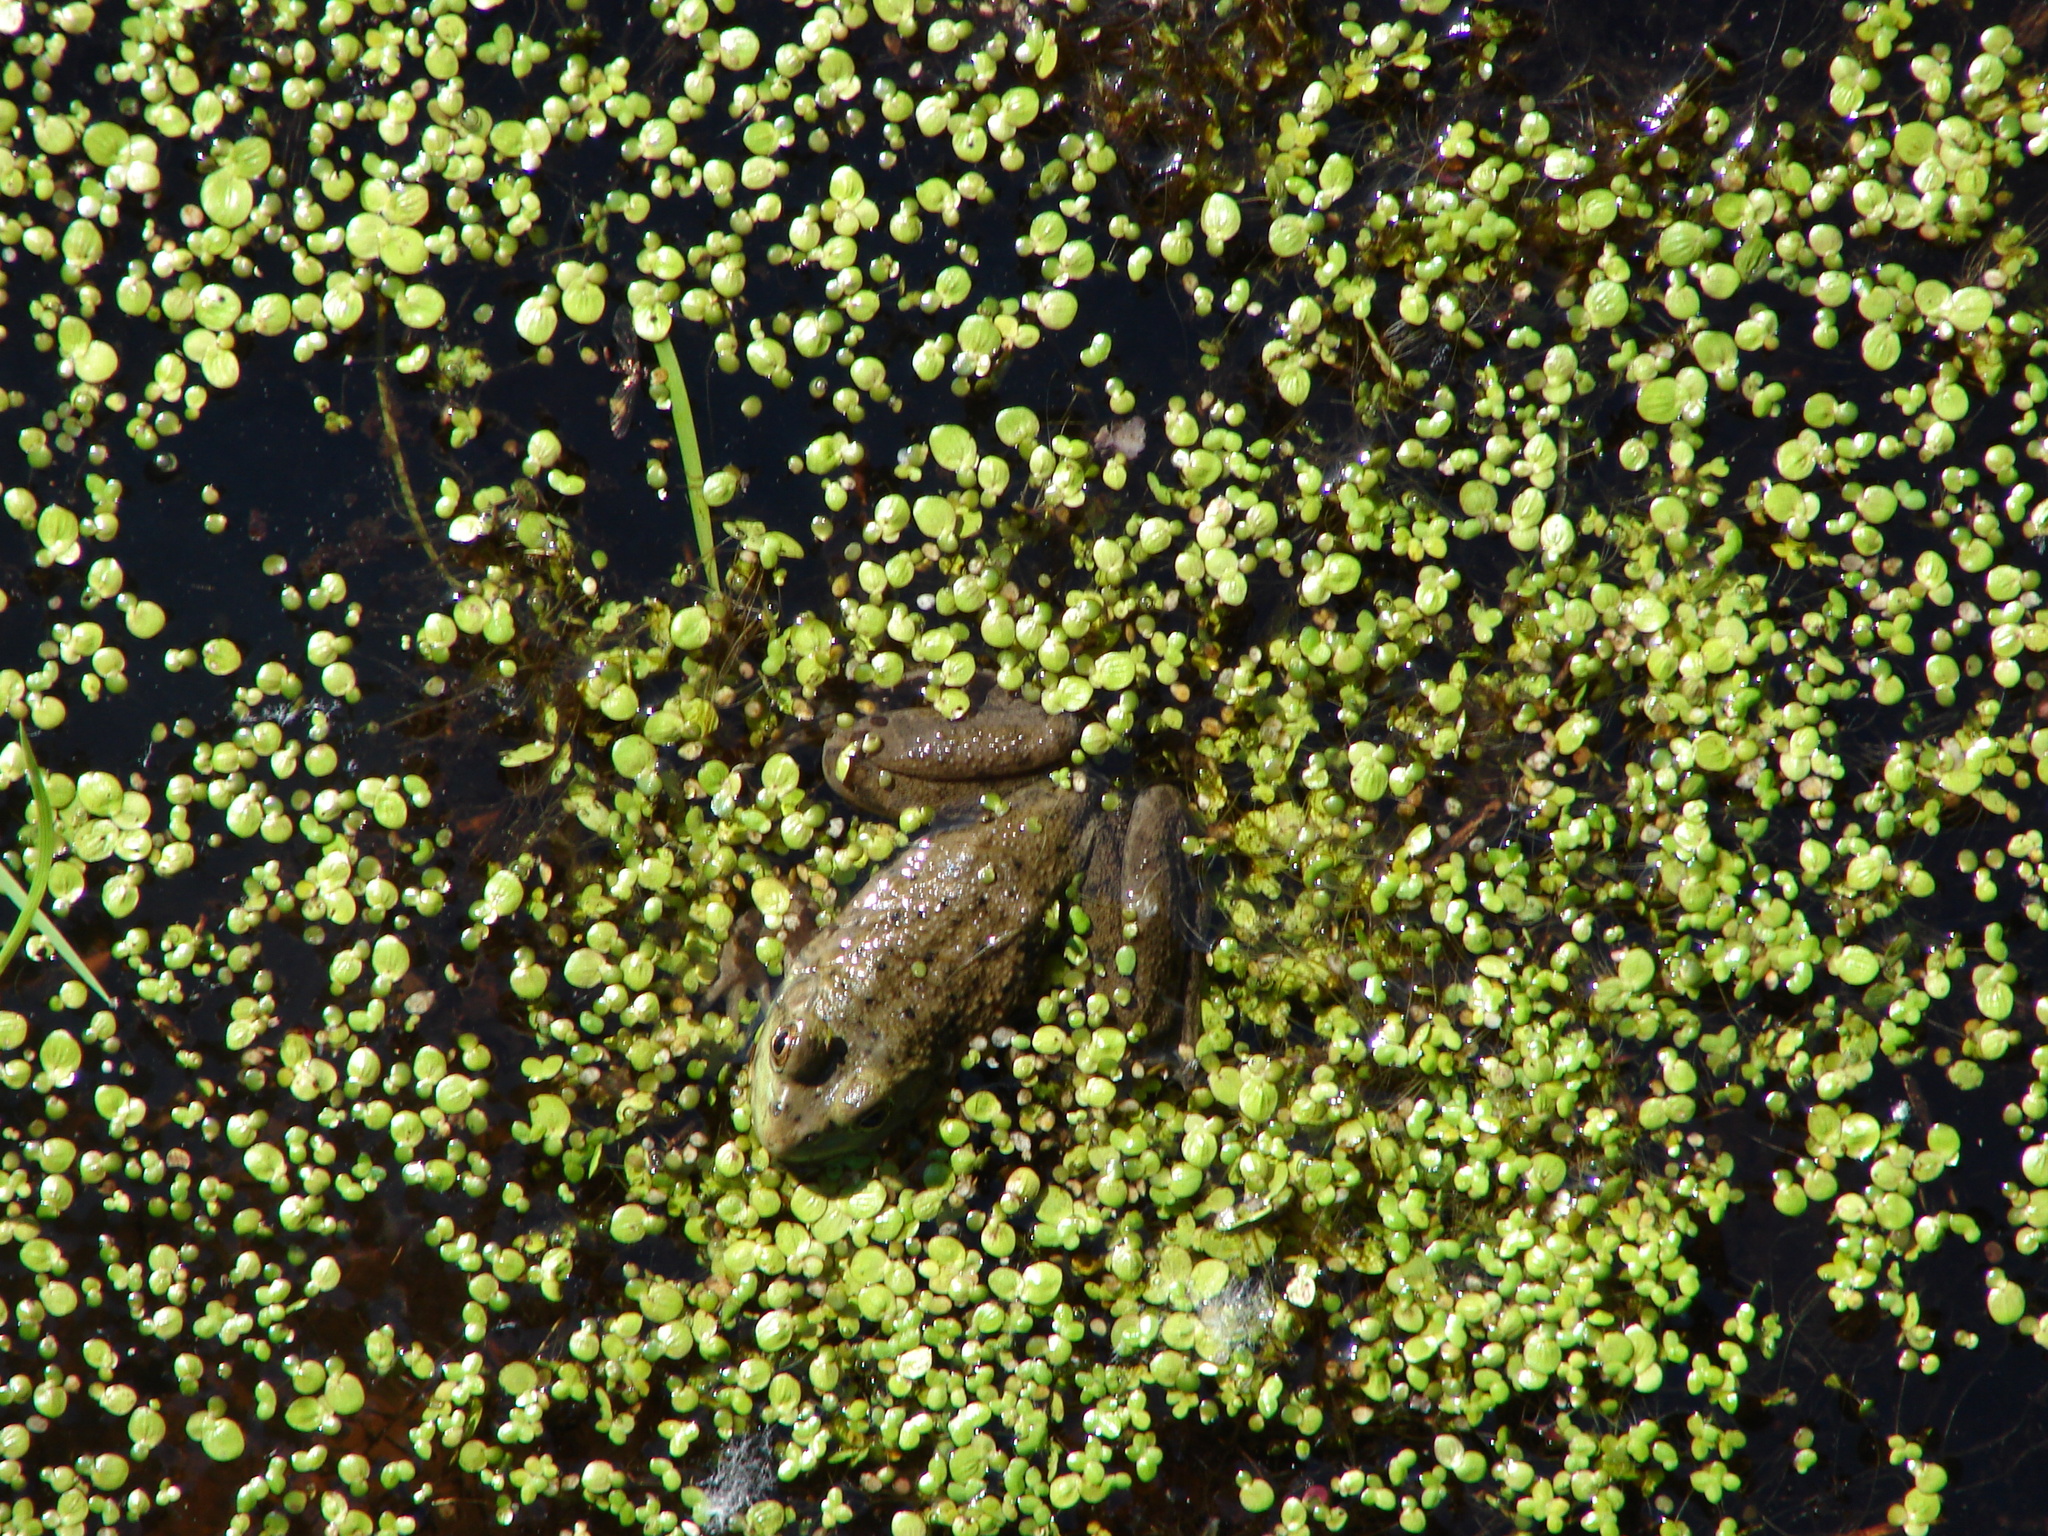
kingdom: Animalia
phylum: Chordata
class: Amphibia
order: Anura
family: Ranidae
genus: Lithobates
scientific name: Lithobates catesbeianus
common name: American bullfrog
